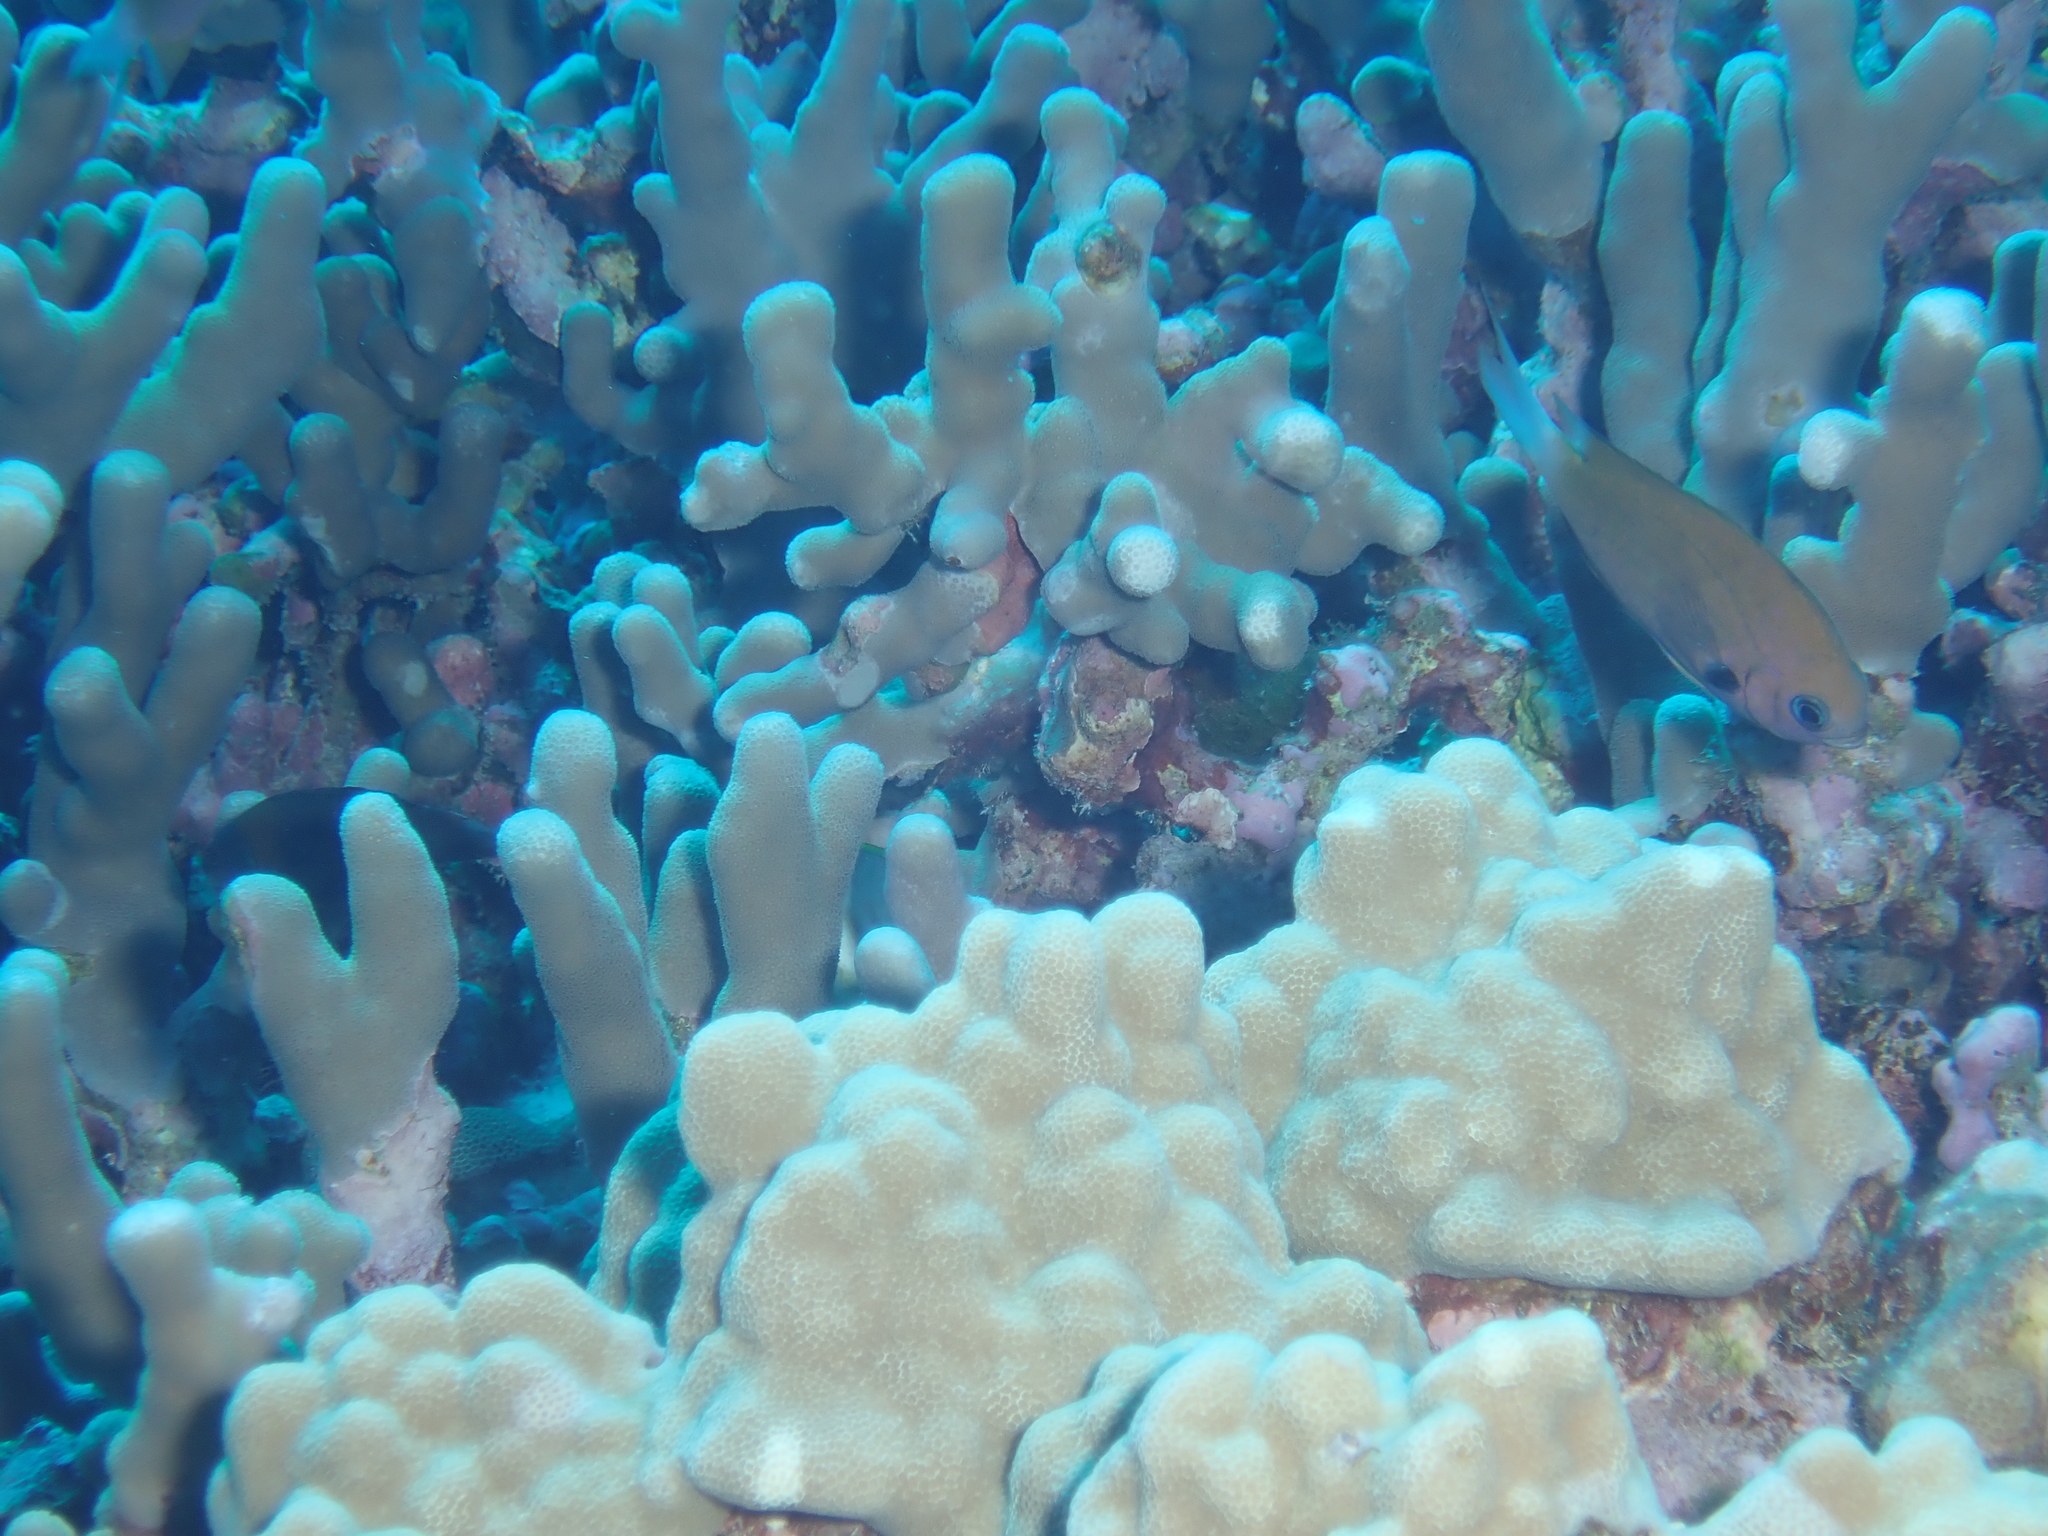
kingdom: Animalia
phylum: Chordata
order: Perciformes
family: Pomacentridae
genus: Pycnochromis
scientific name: Pycnochromis pacifica
